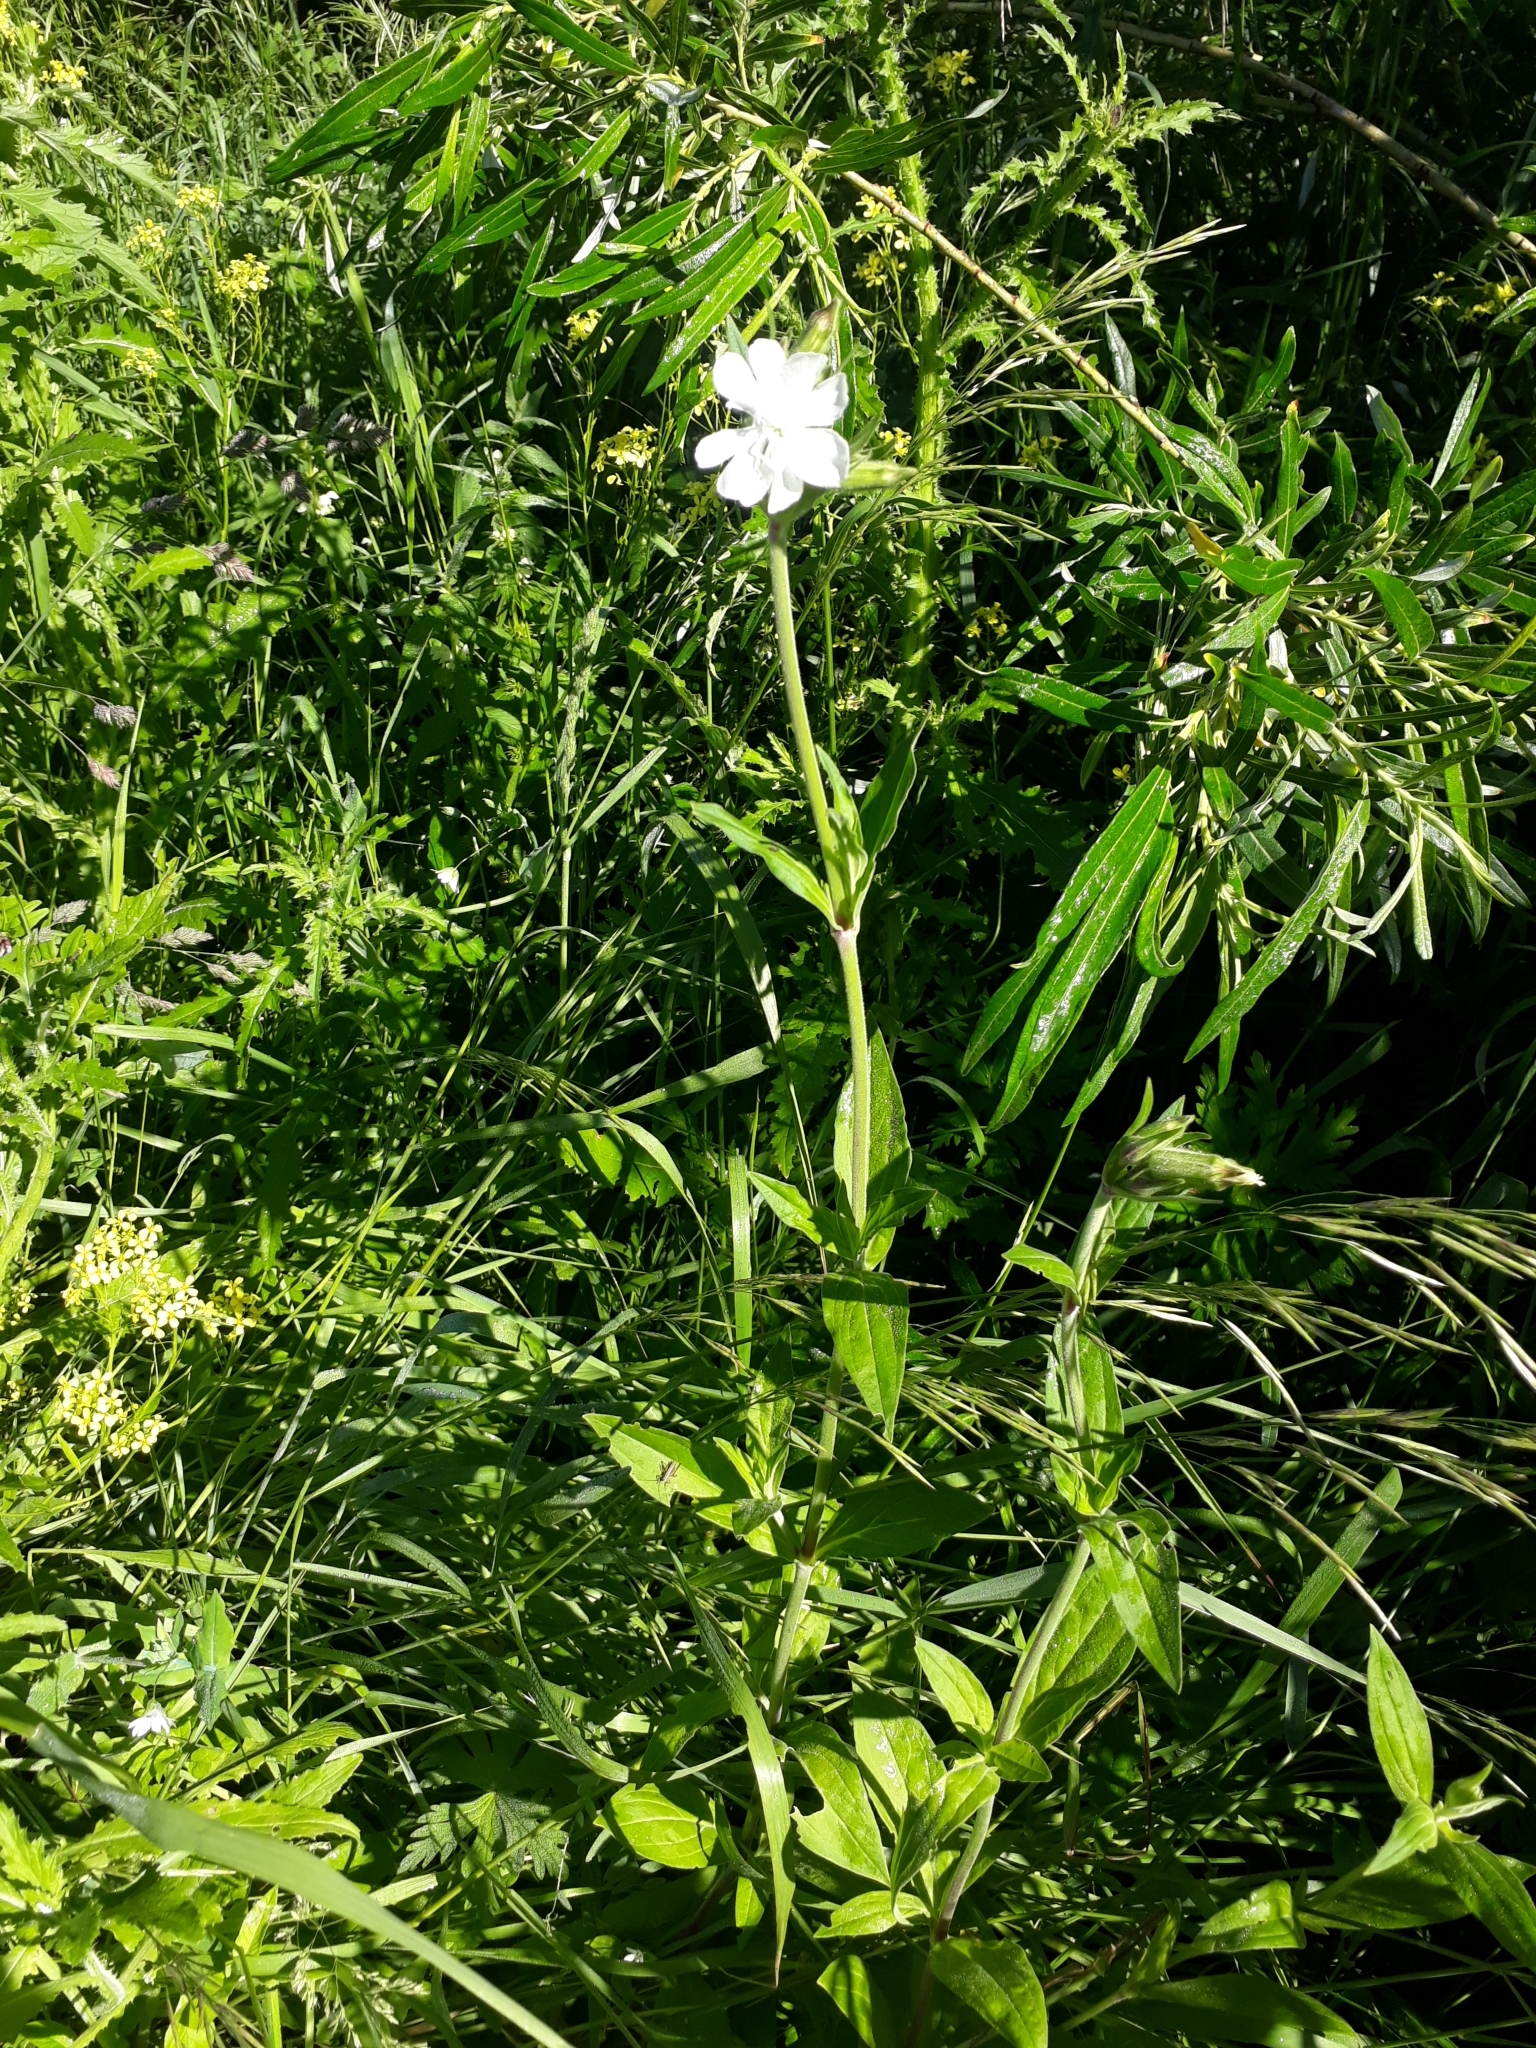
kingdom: Plantae
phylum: Tracheophyta
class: Magnoliopsida
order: Caryophyllales
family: Caryophyllaceae
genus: Silene
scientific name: Silene latifolia
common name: White campion
